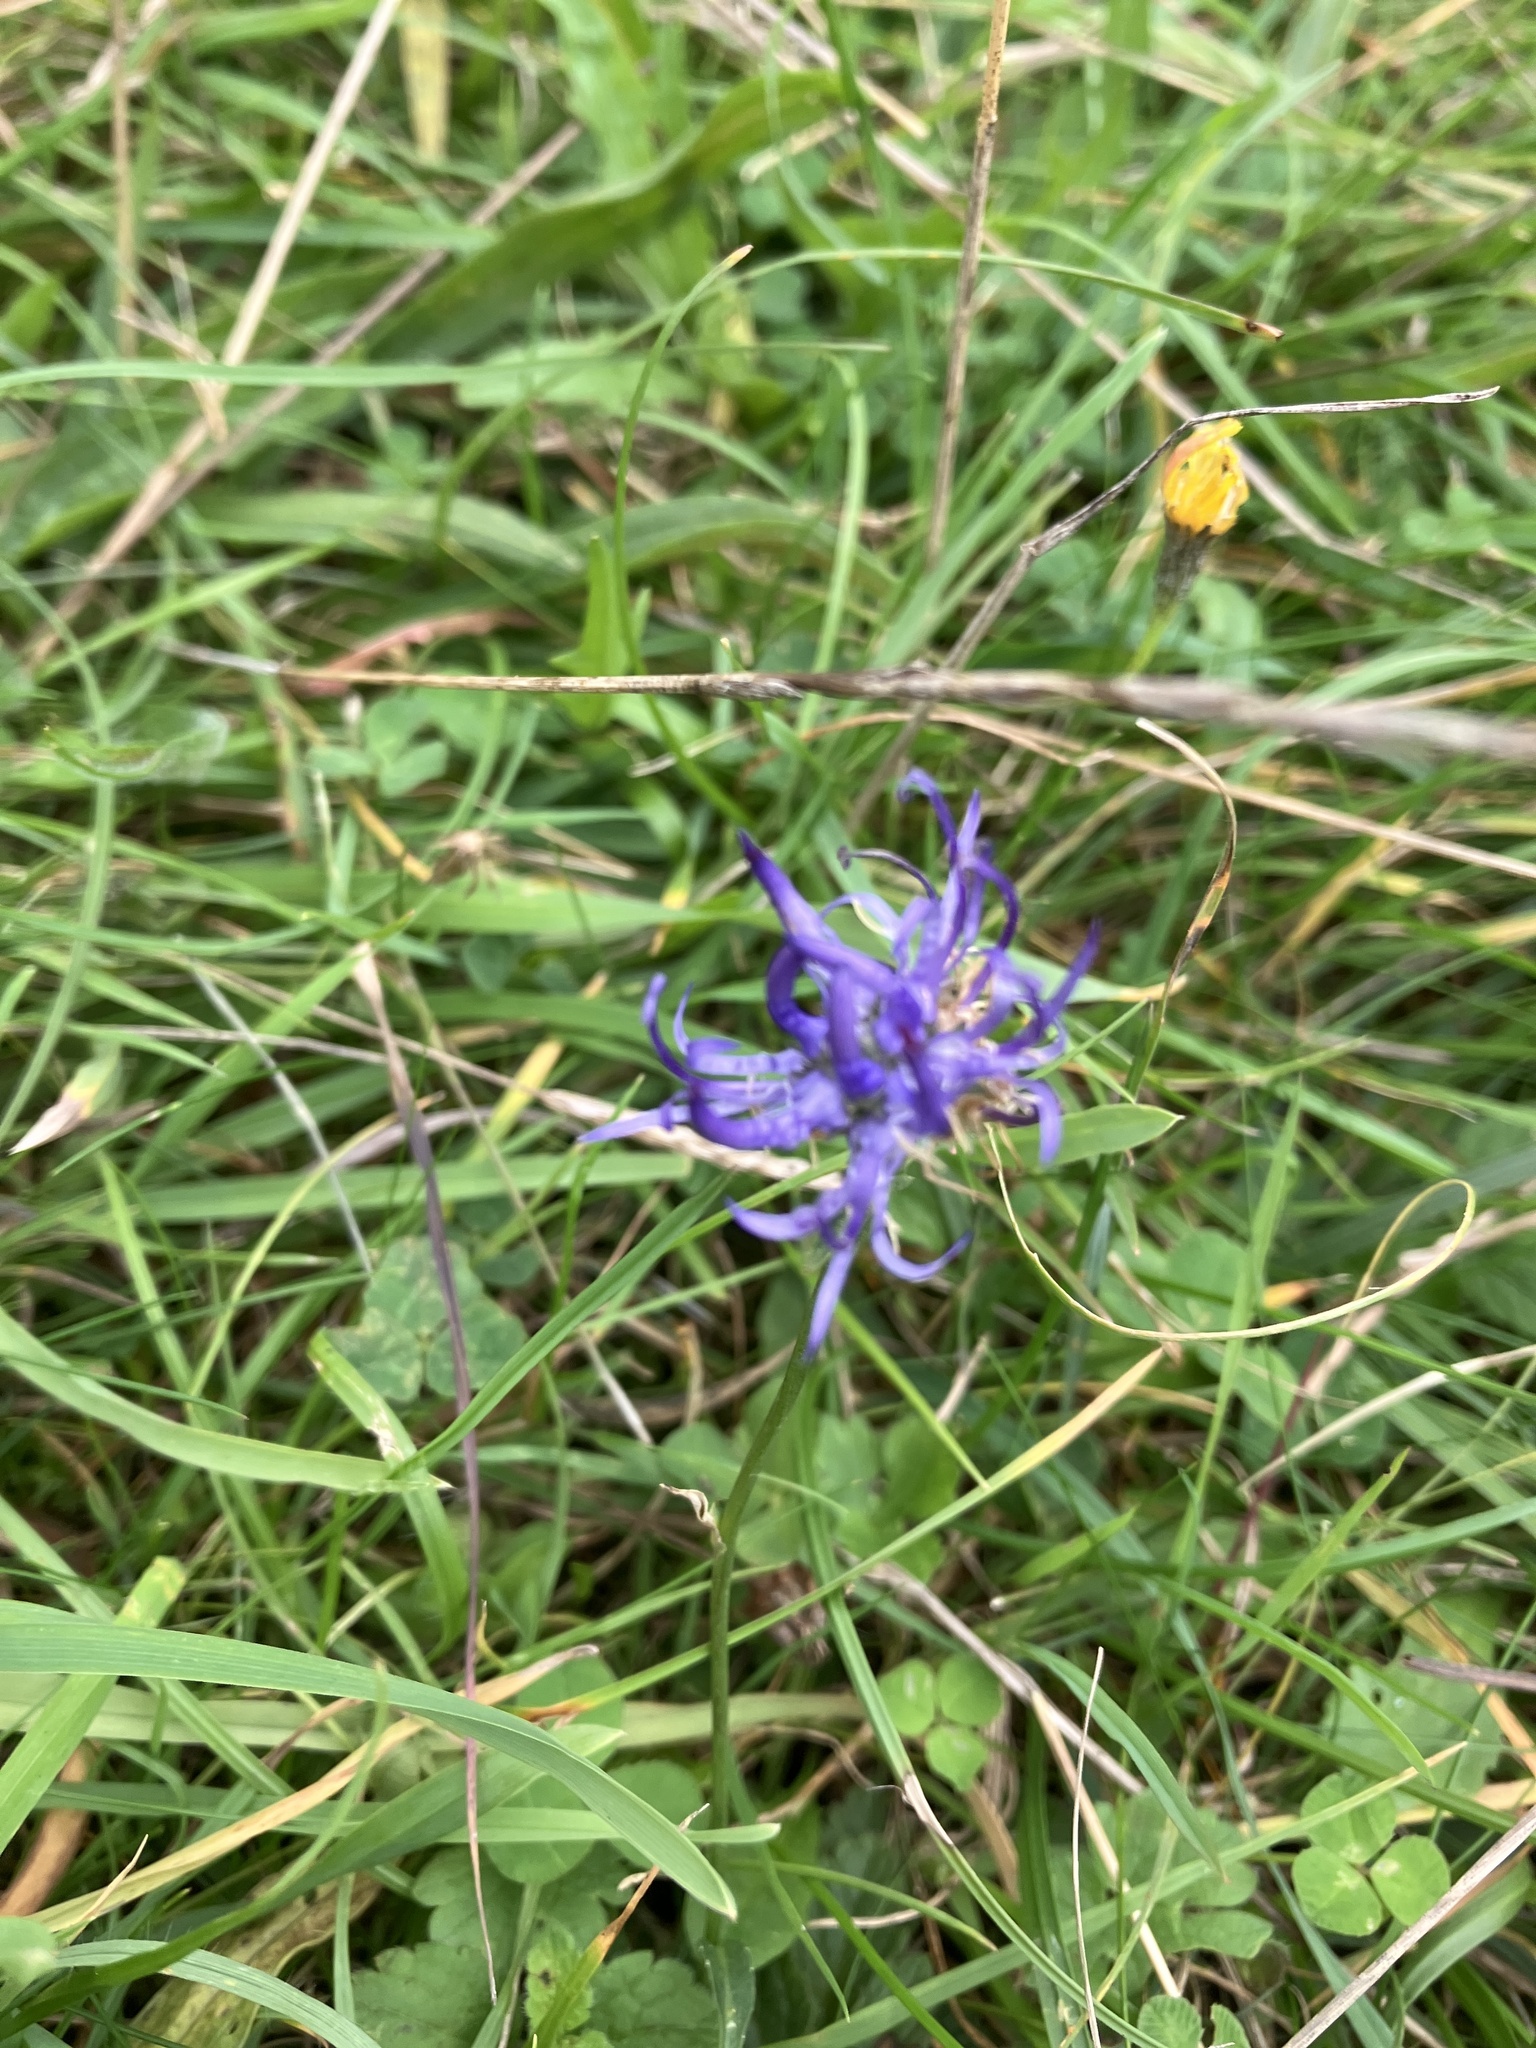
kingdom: Plantae
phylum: Tracheophyta
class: Magnoliopsida
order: Asterales
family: Campanulaceae
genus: Phyteuma
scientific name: Phyteuma orbiculare
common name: Round-headed rampion
